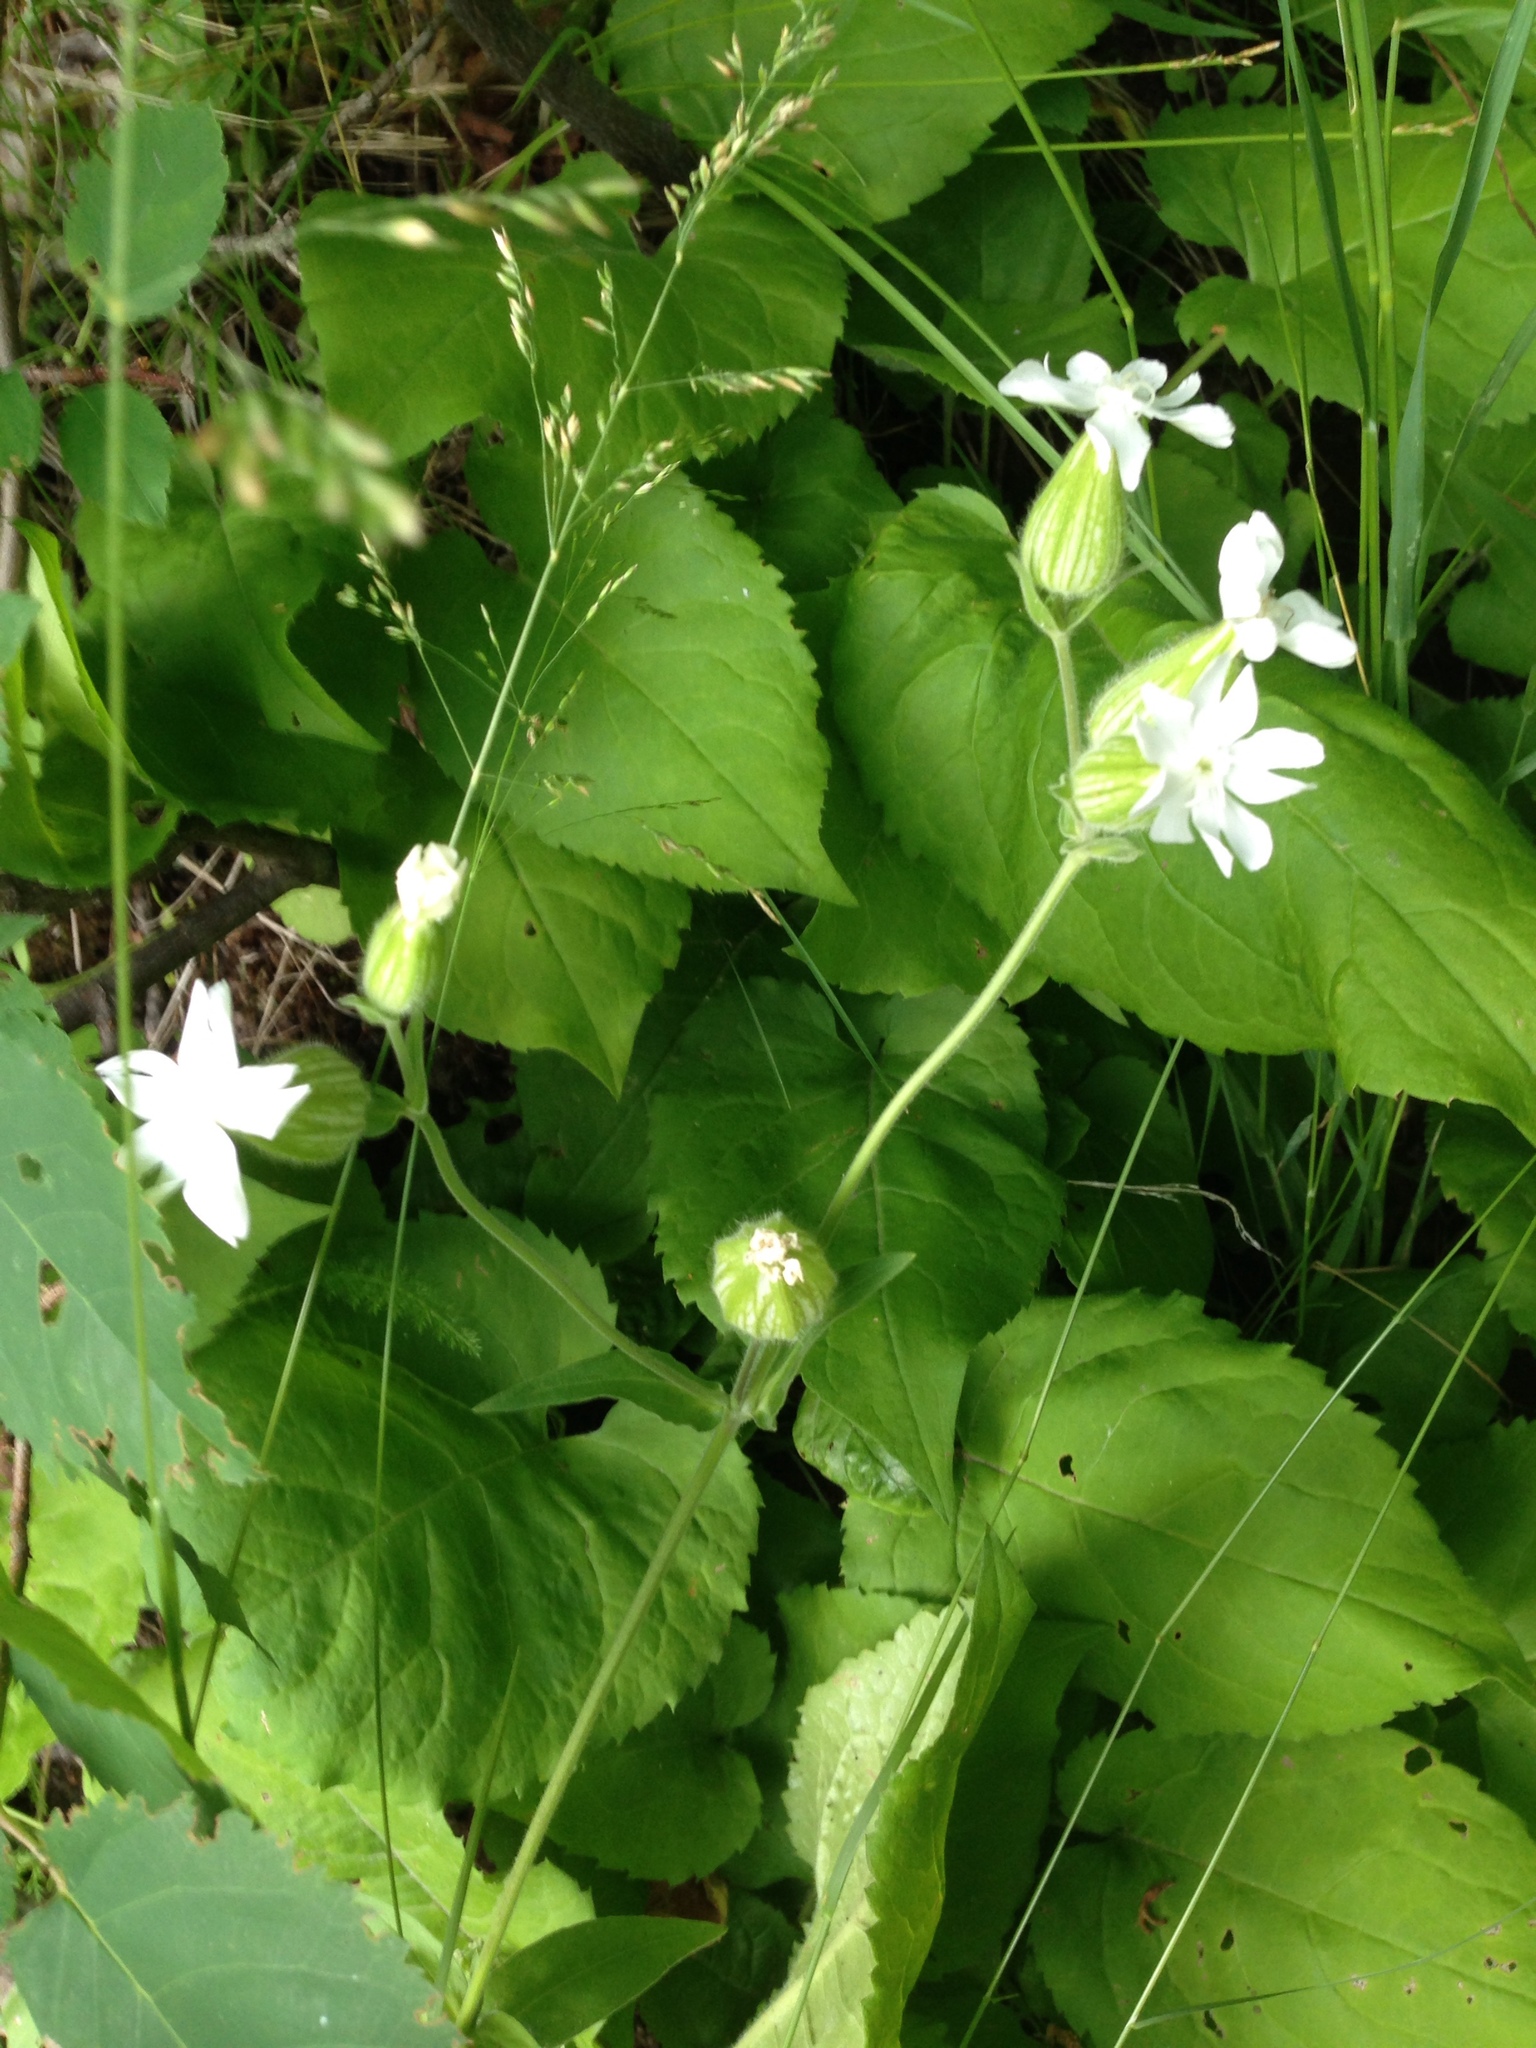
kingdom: Plantae
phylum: Tracheophyta
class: Magnoliopsida
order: Caryophyllales
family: Caryophyllaceae
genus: Silene
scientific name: Silene latifolia
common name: White campion
